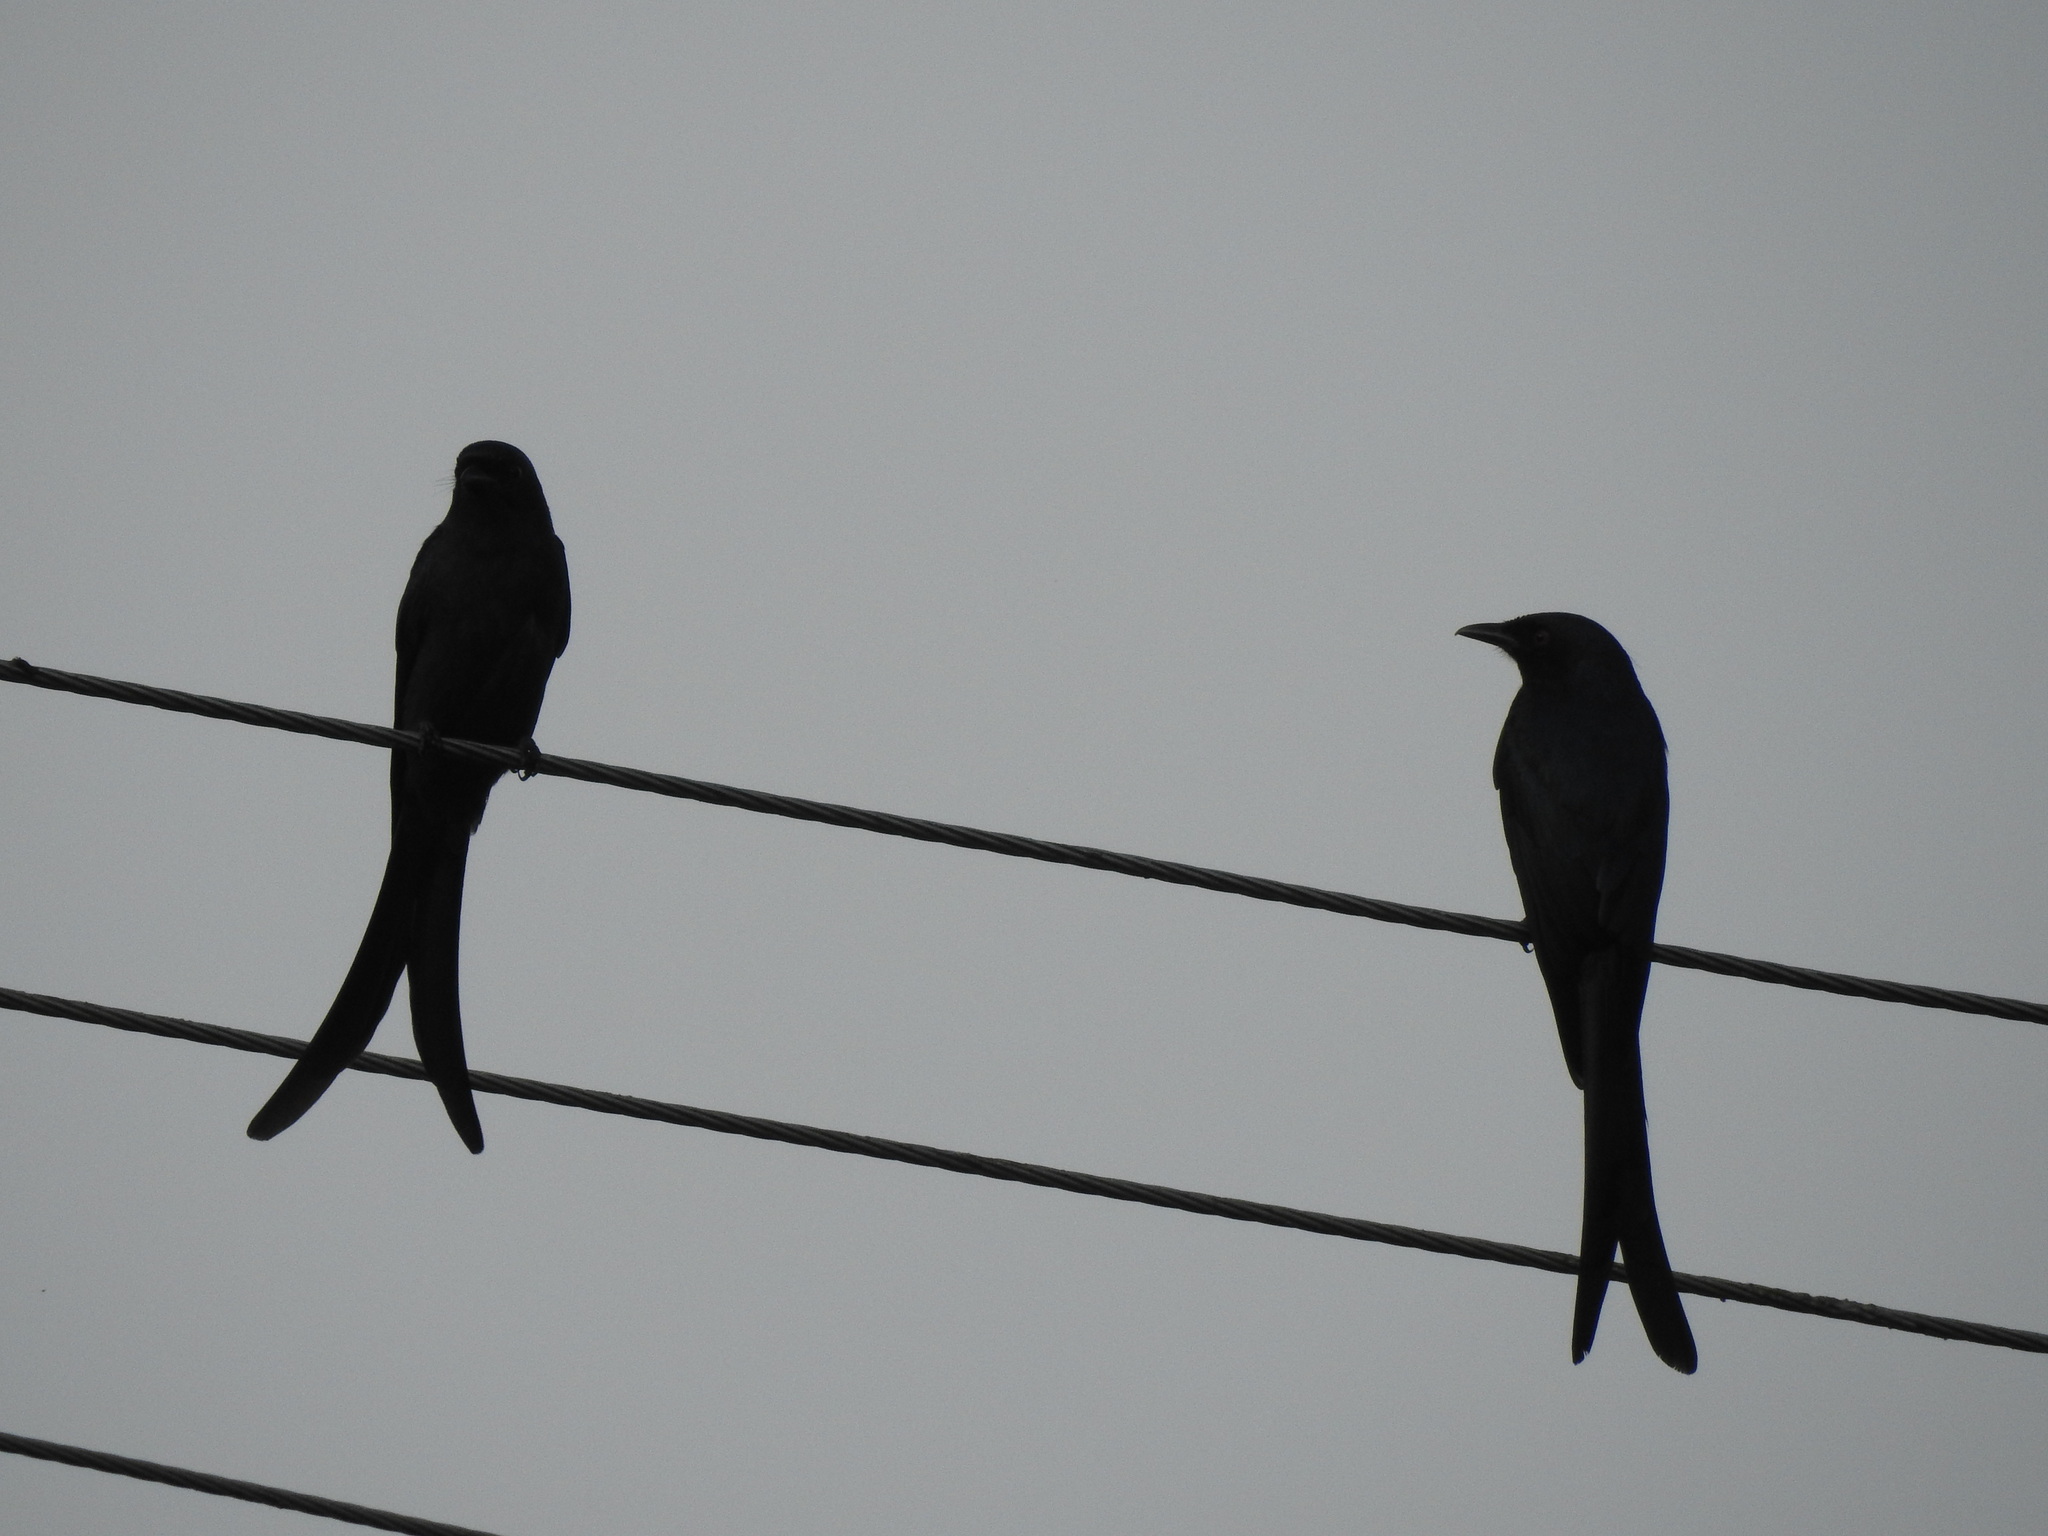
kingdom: Animalia
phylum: Chordata
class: Aves
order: Passeriformes
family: Dicruridae
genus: Dicrurus
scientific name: Dicrurus macrocercus
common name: Black drongo
